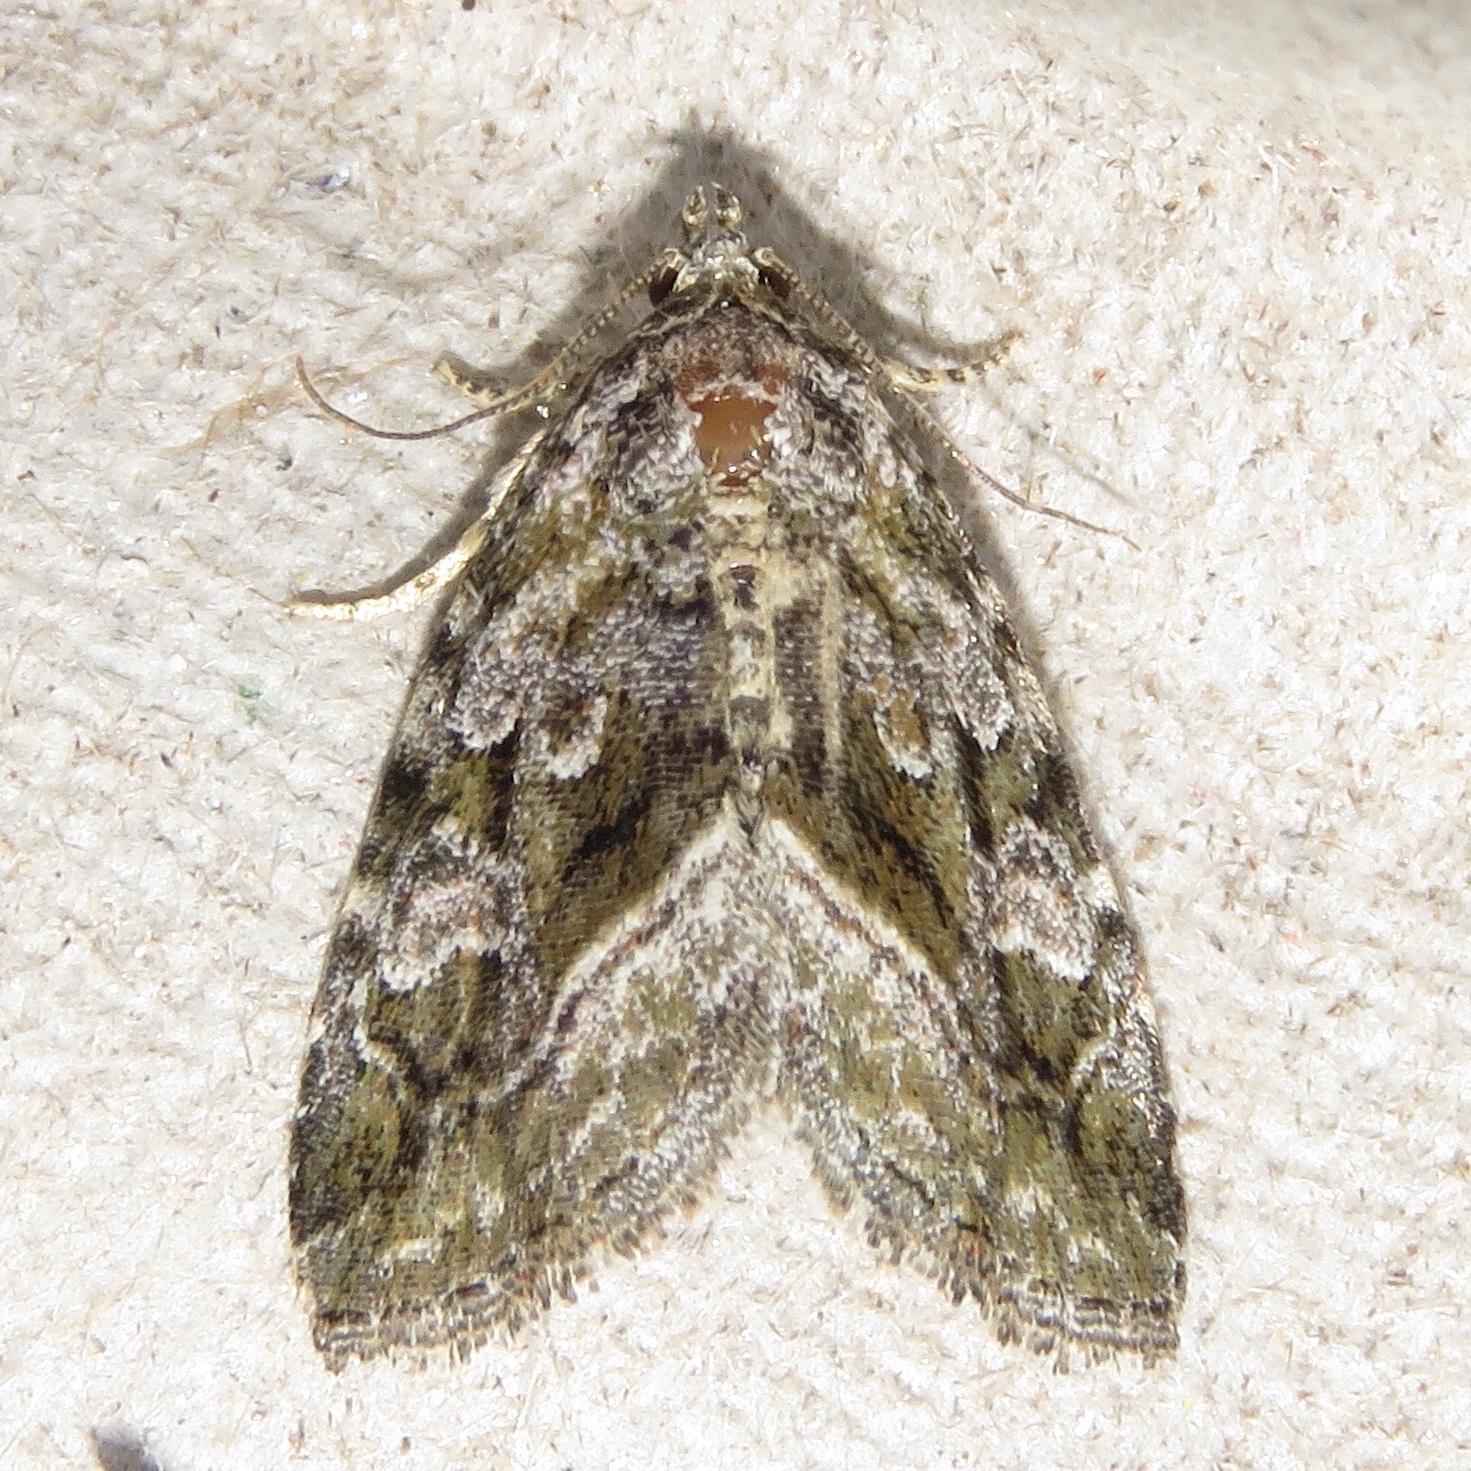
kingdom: Animalia
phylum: Arthropoda
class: Insecta
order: Lepidoptera
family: Noctuidae
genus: Protodeltote
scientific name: Protodeltote muscosula
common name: Large mossy glyph
